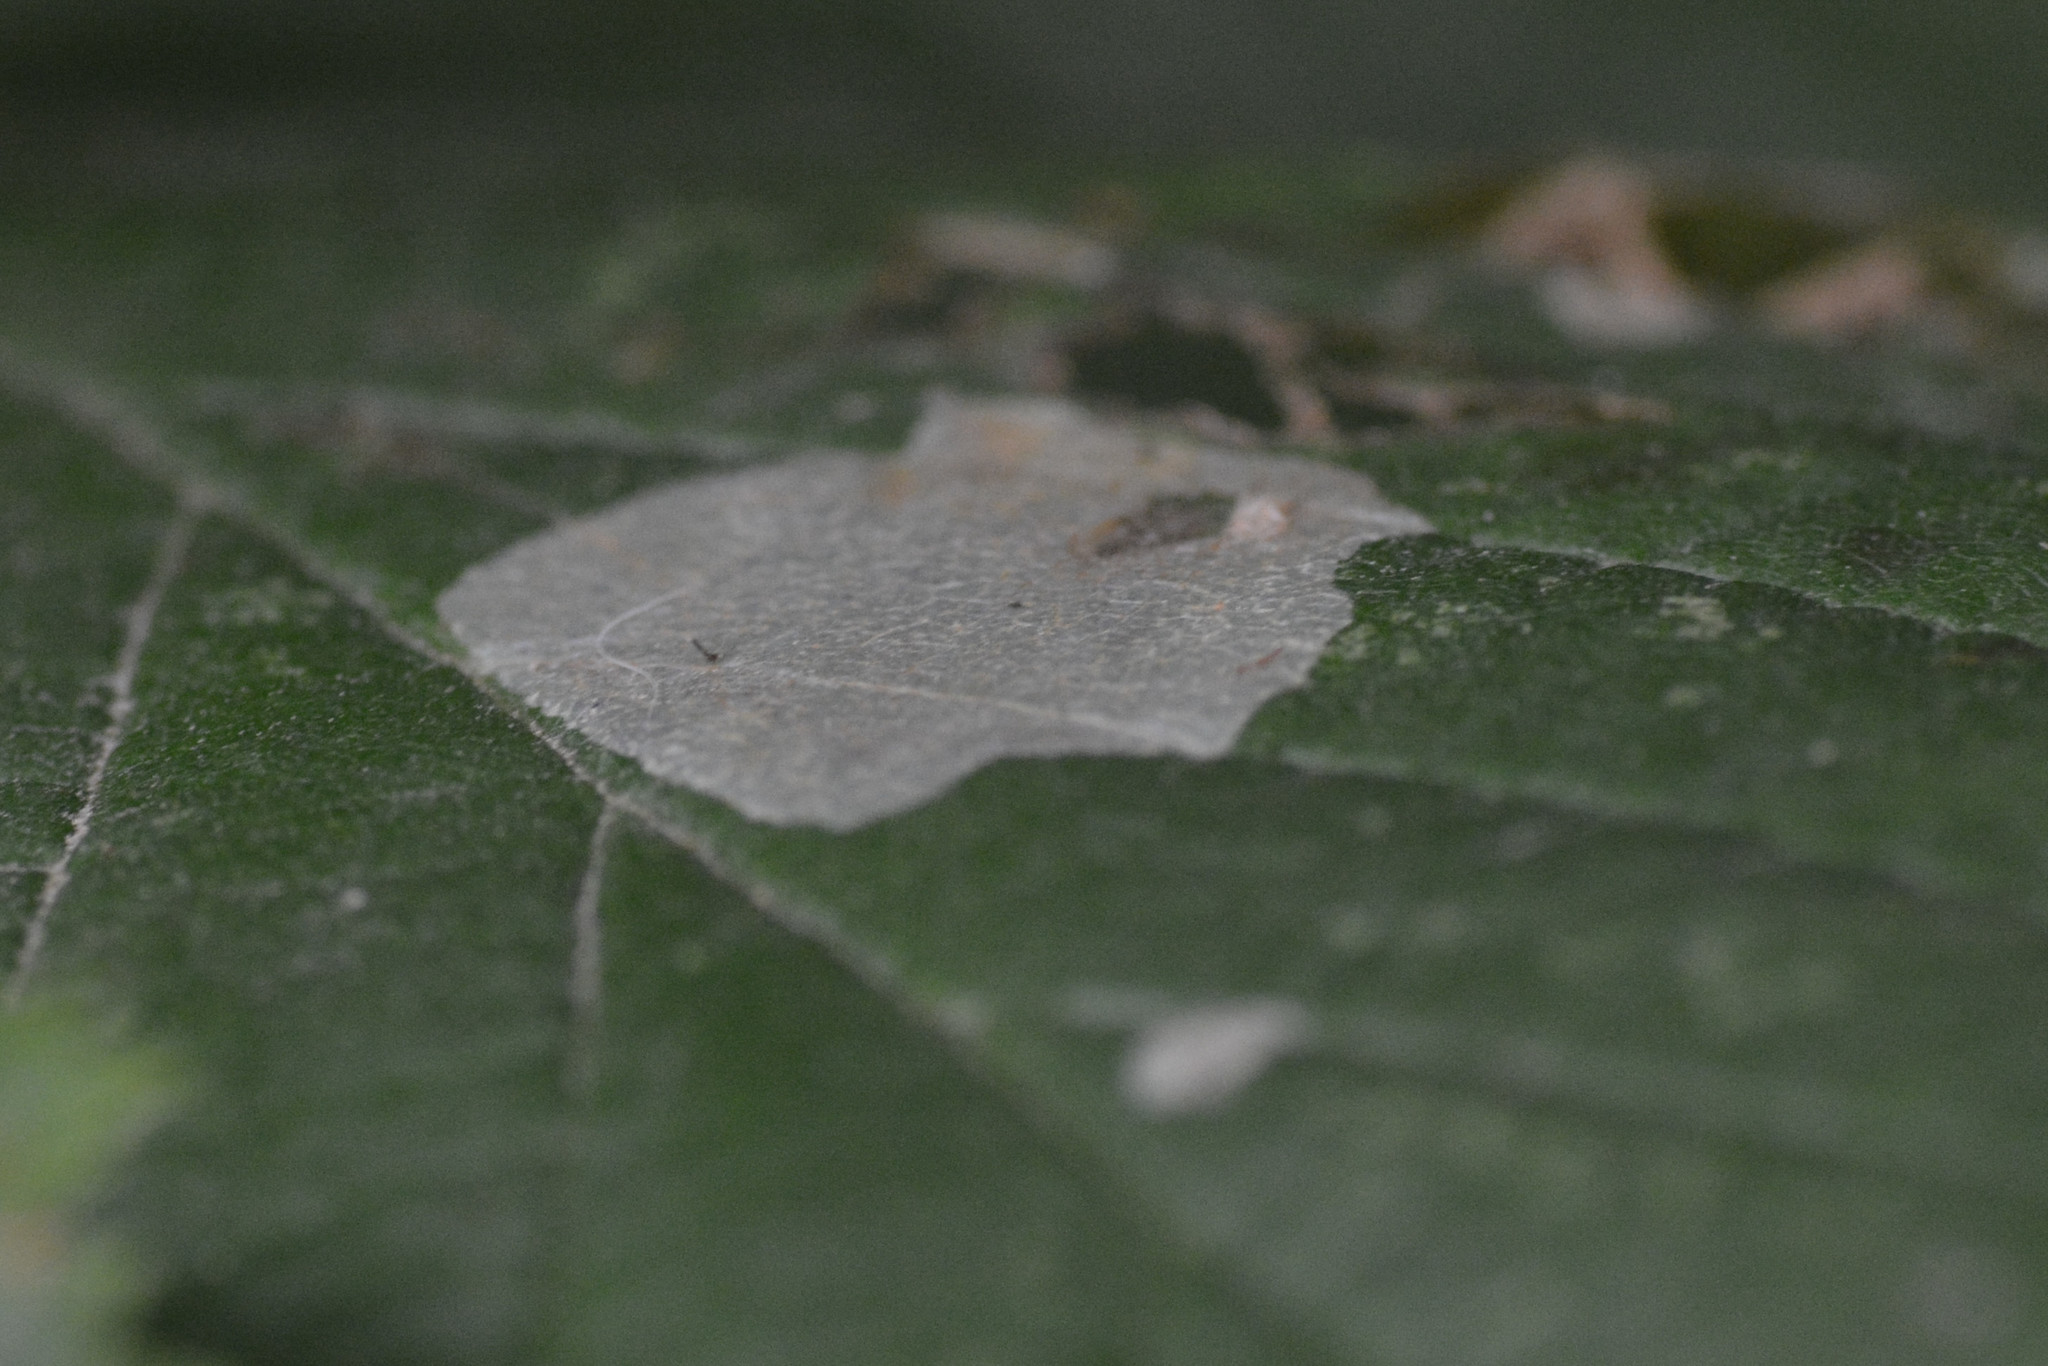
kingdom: Animalia
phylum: Arthropoda
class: Insecta
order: Lepidoptera
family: Gracillariidae
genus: Phyllonorycter
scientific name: Phyllonorycter coryli
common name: Nut-leaf blister moth
